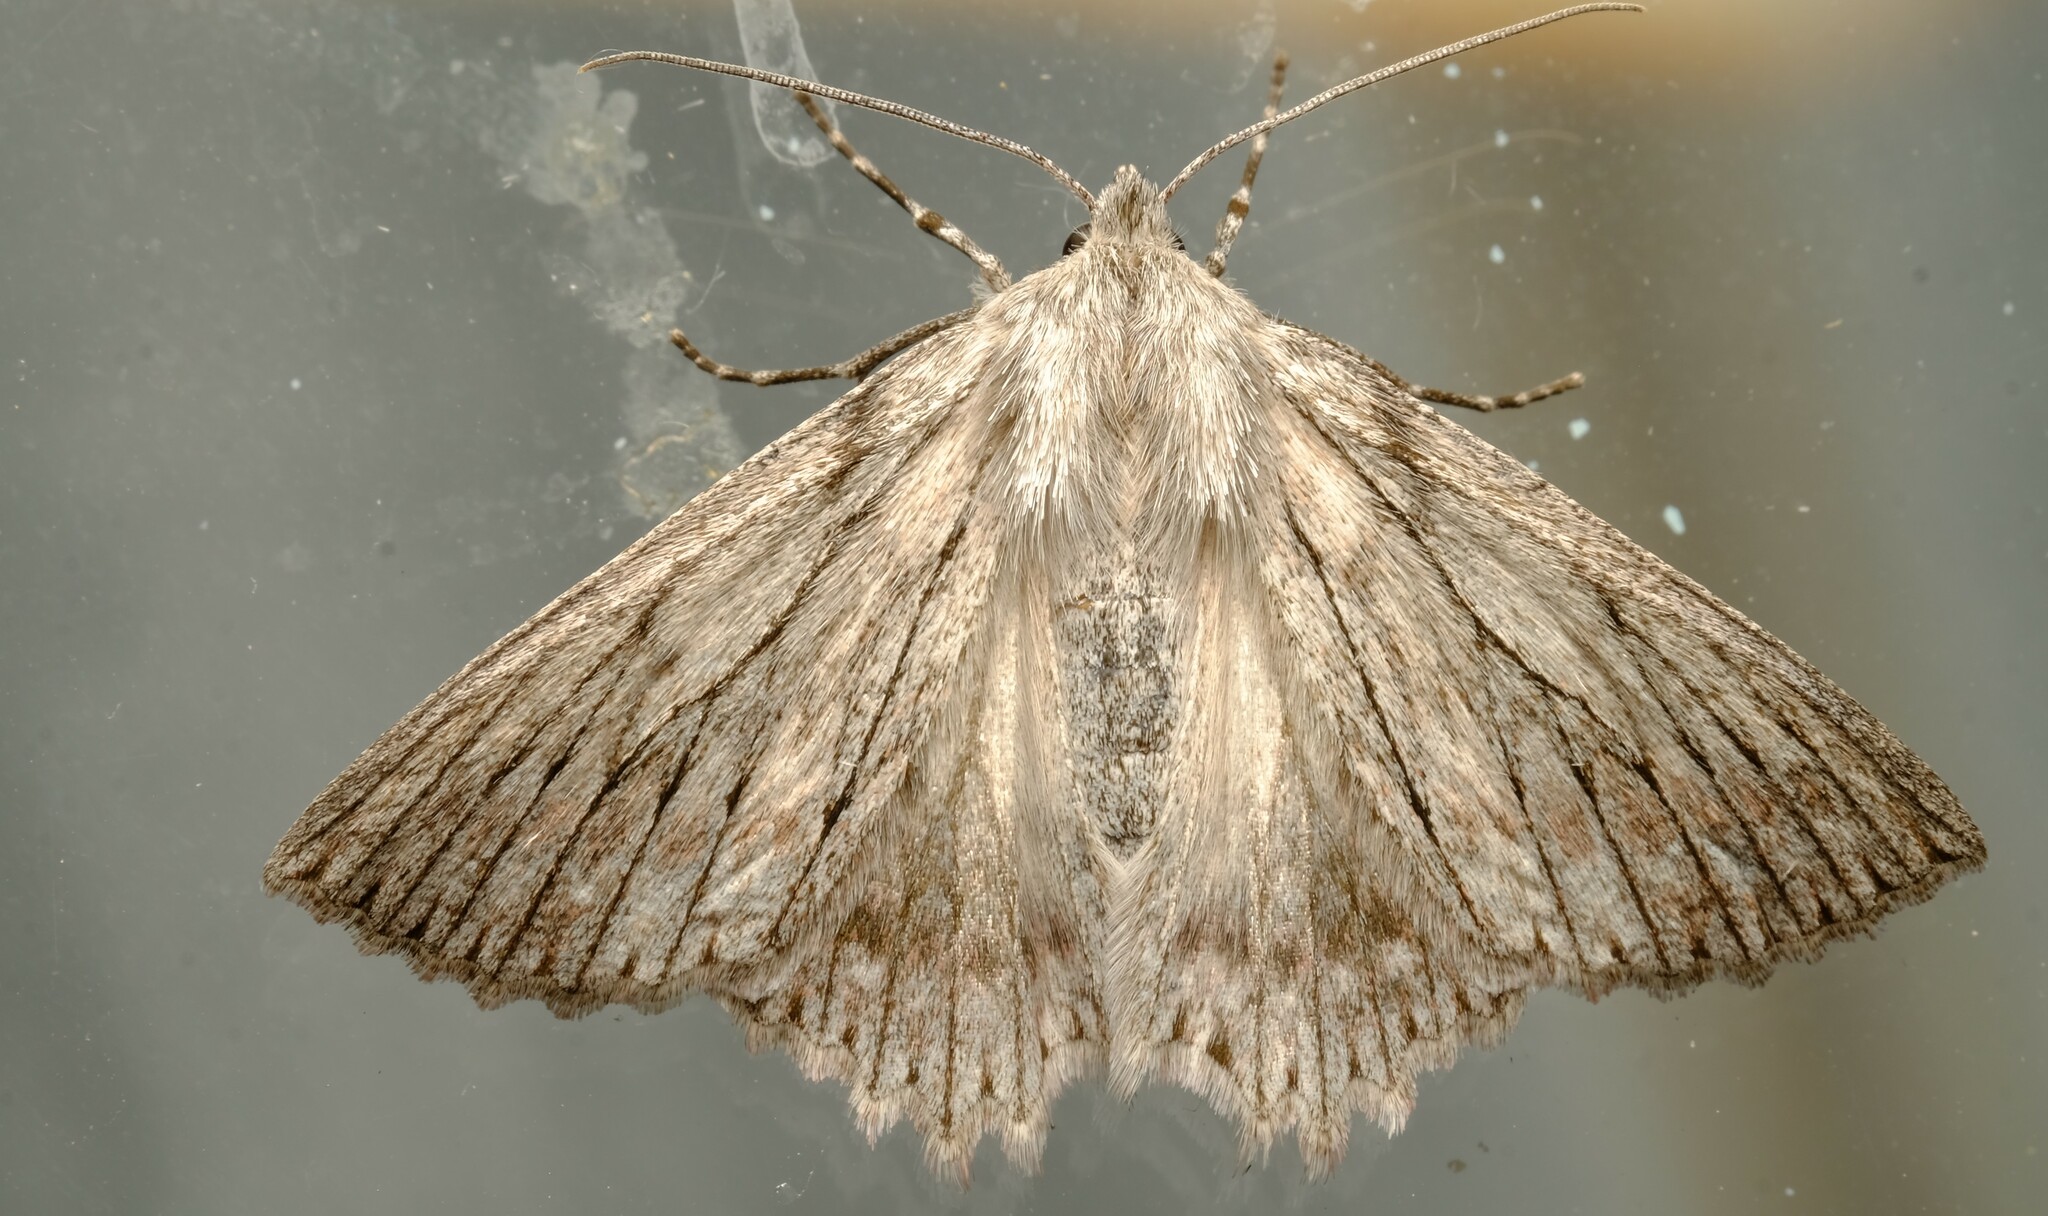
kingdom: Animalia
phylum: Arthropoda
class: Insecta
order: Lepidoptera
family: Geometridae
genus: Cyneoterpna
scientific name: Cyneoterpna wilsoni
